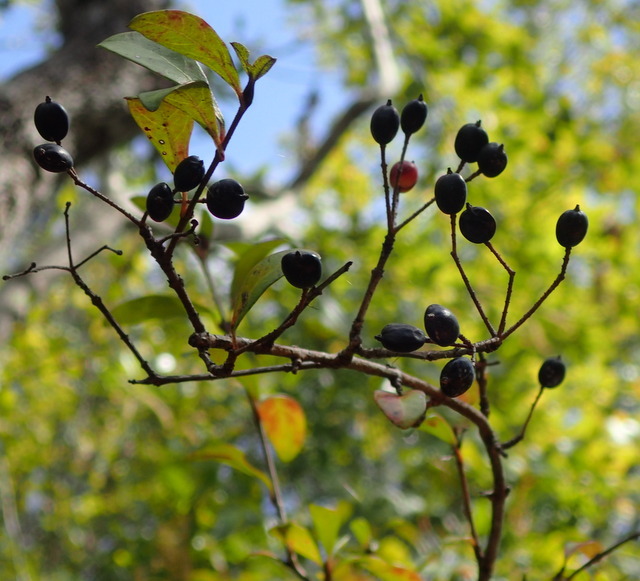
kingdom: Plantae
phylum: Tracheophyta
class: Magnoliopsida
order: Dipsacales
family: Viburnaceae
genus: Viburnum
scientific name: Viburnum obovatum
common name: Walter's viburnum
